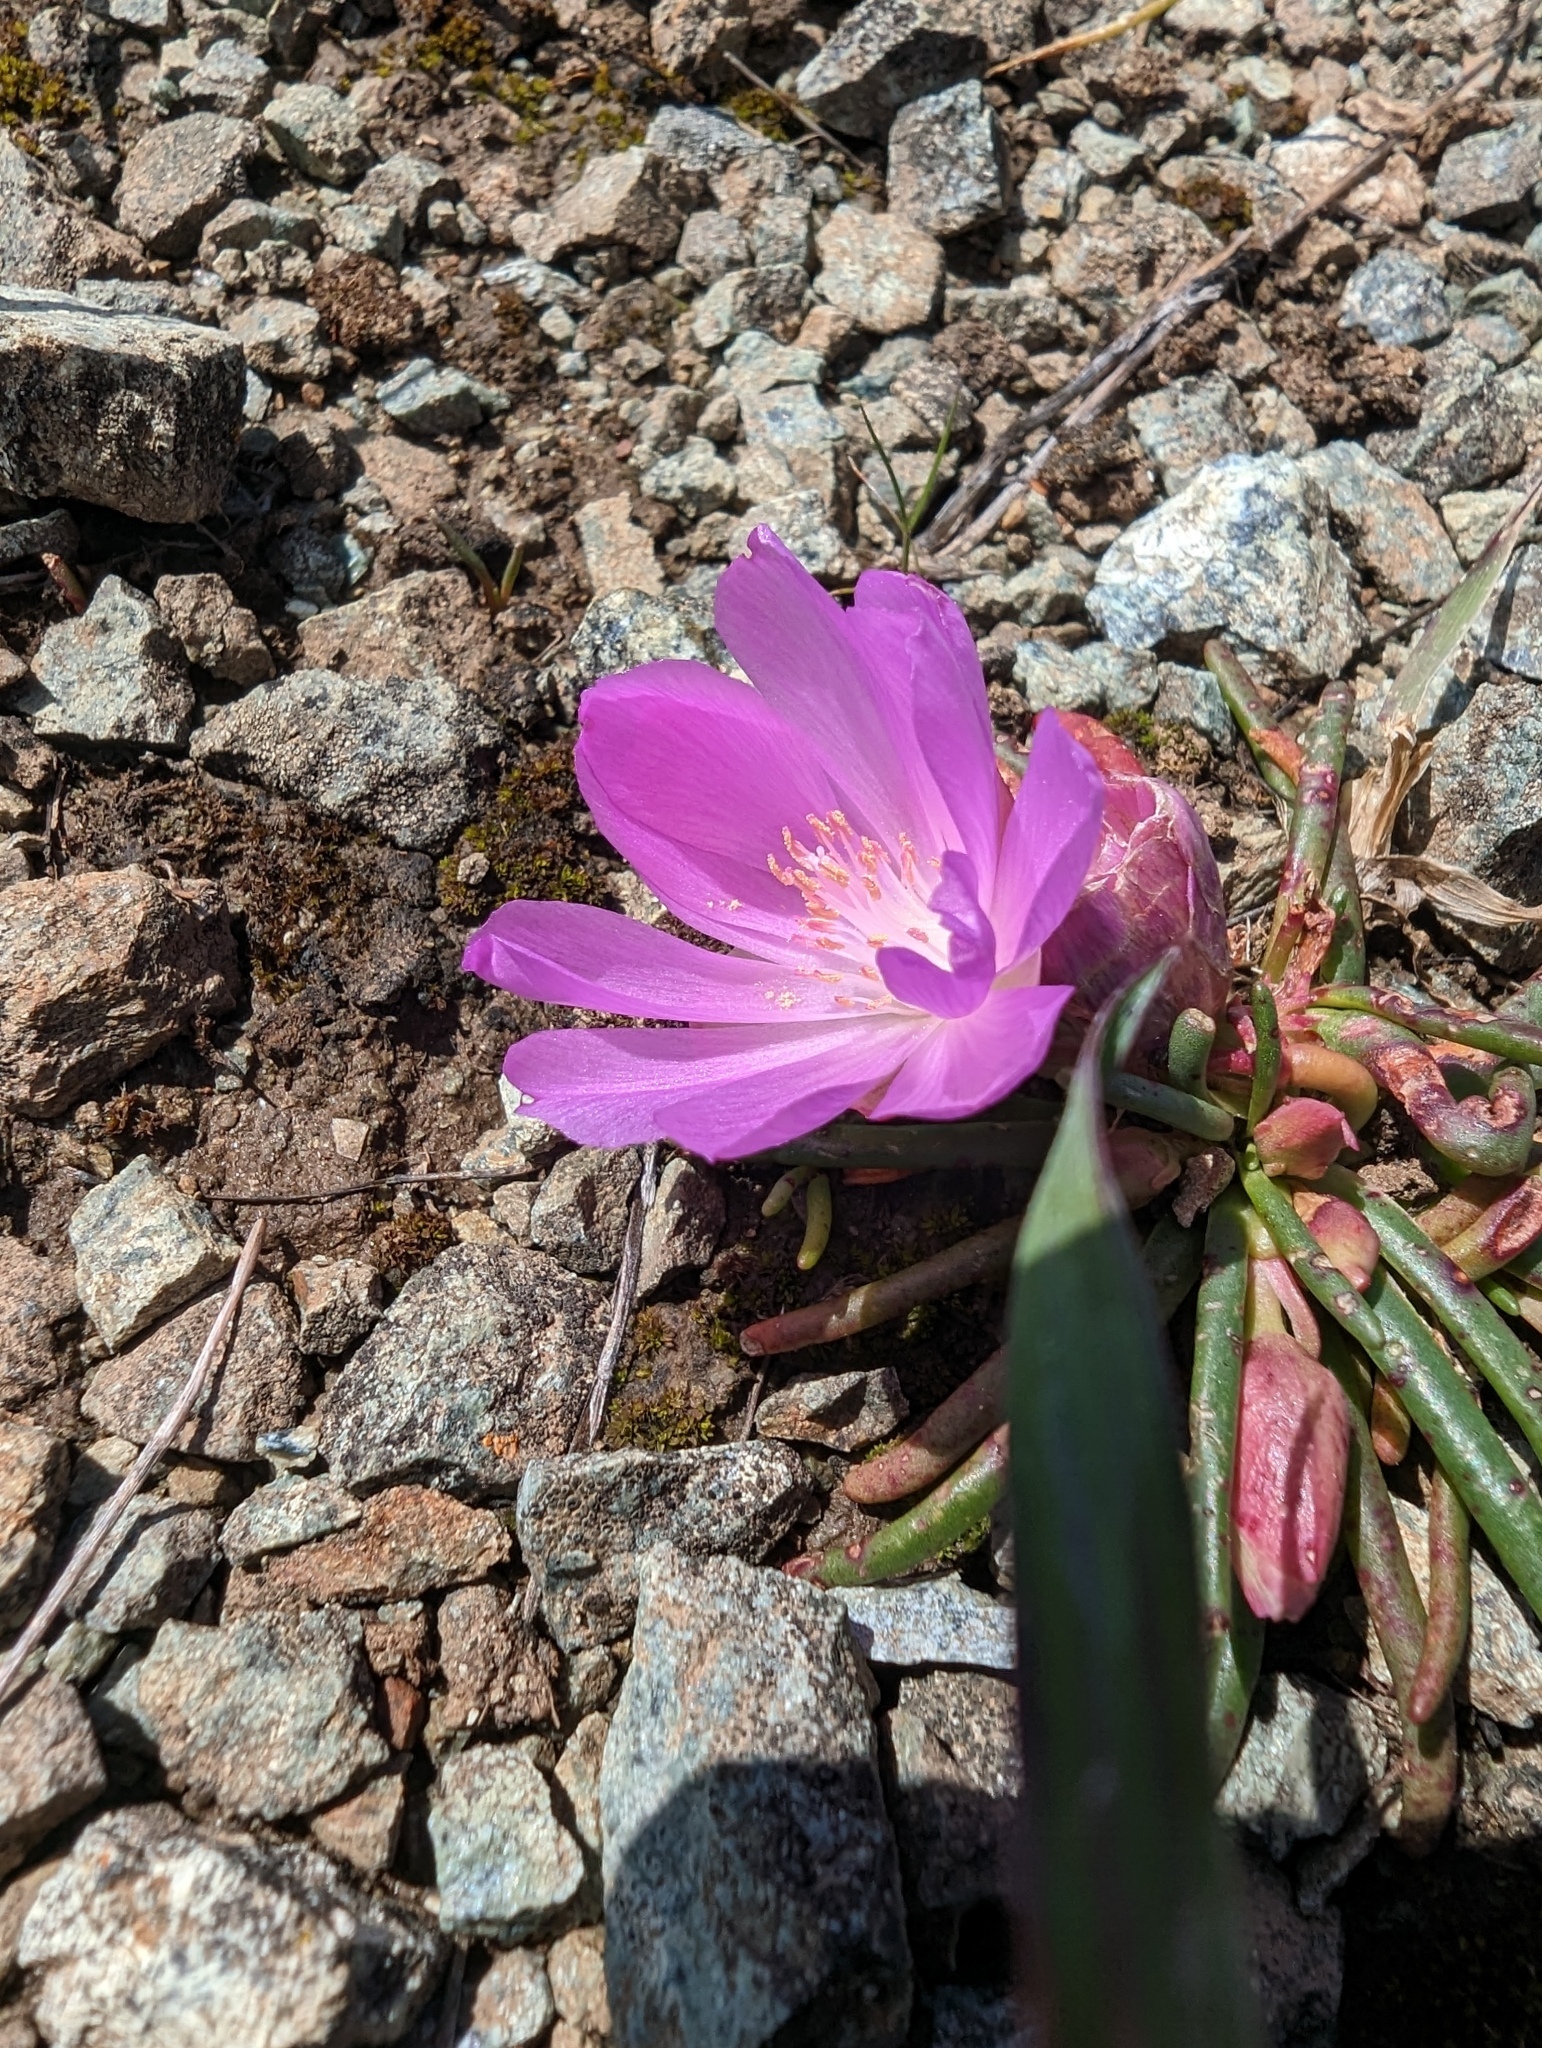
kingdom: Plantae
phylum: Tracheophyta
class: Magnoliopsida
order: Caryophyllales
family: Montiaceae
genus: Lewisia
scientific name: Lewisia rediviva
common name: Bitter-root
